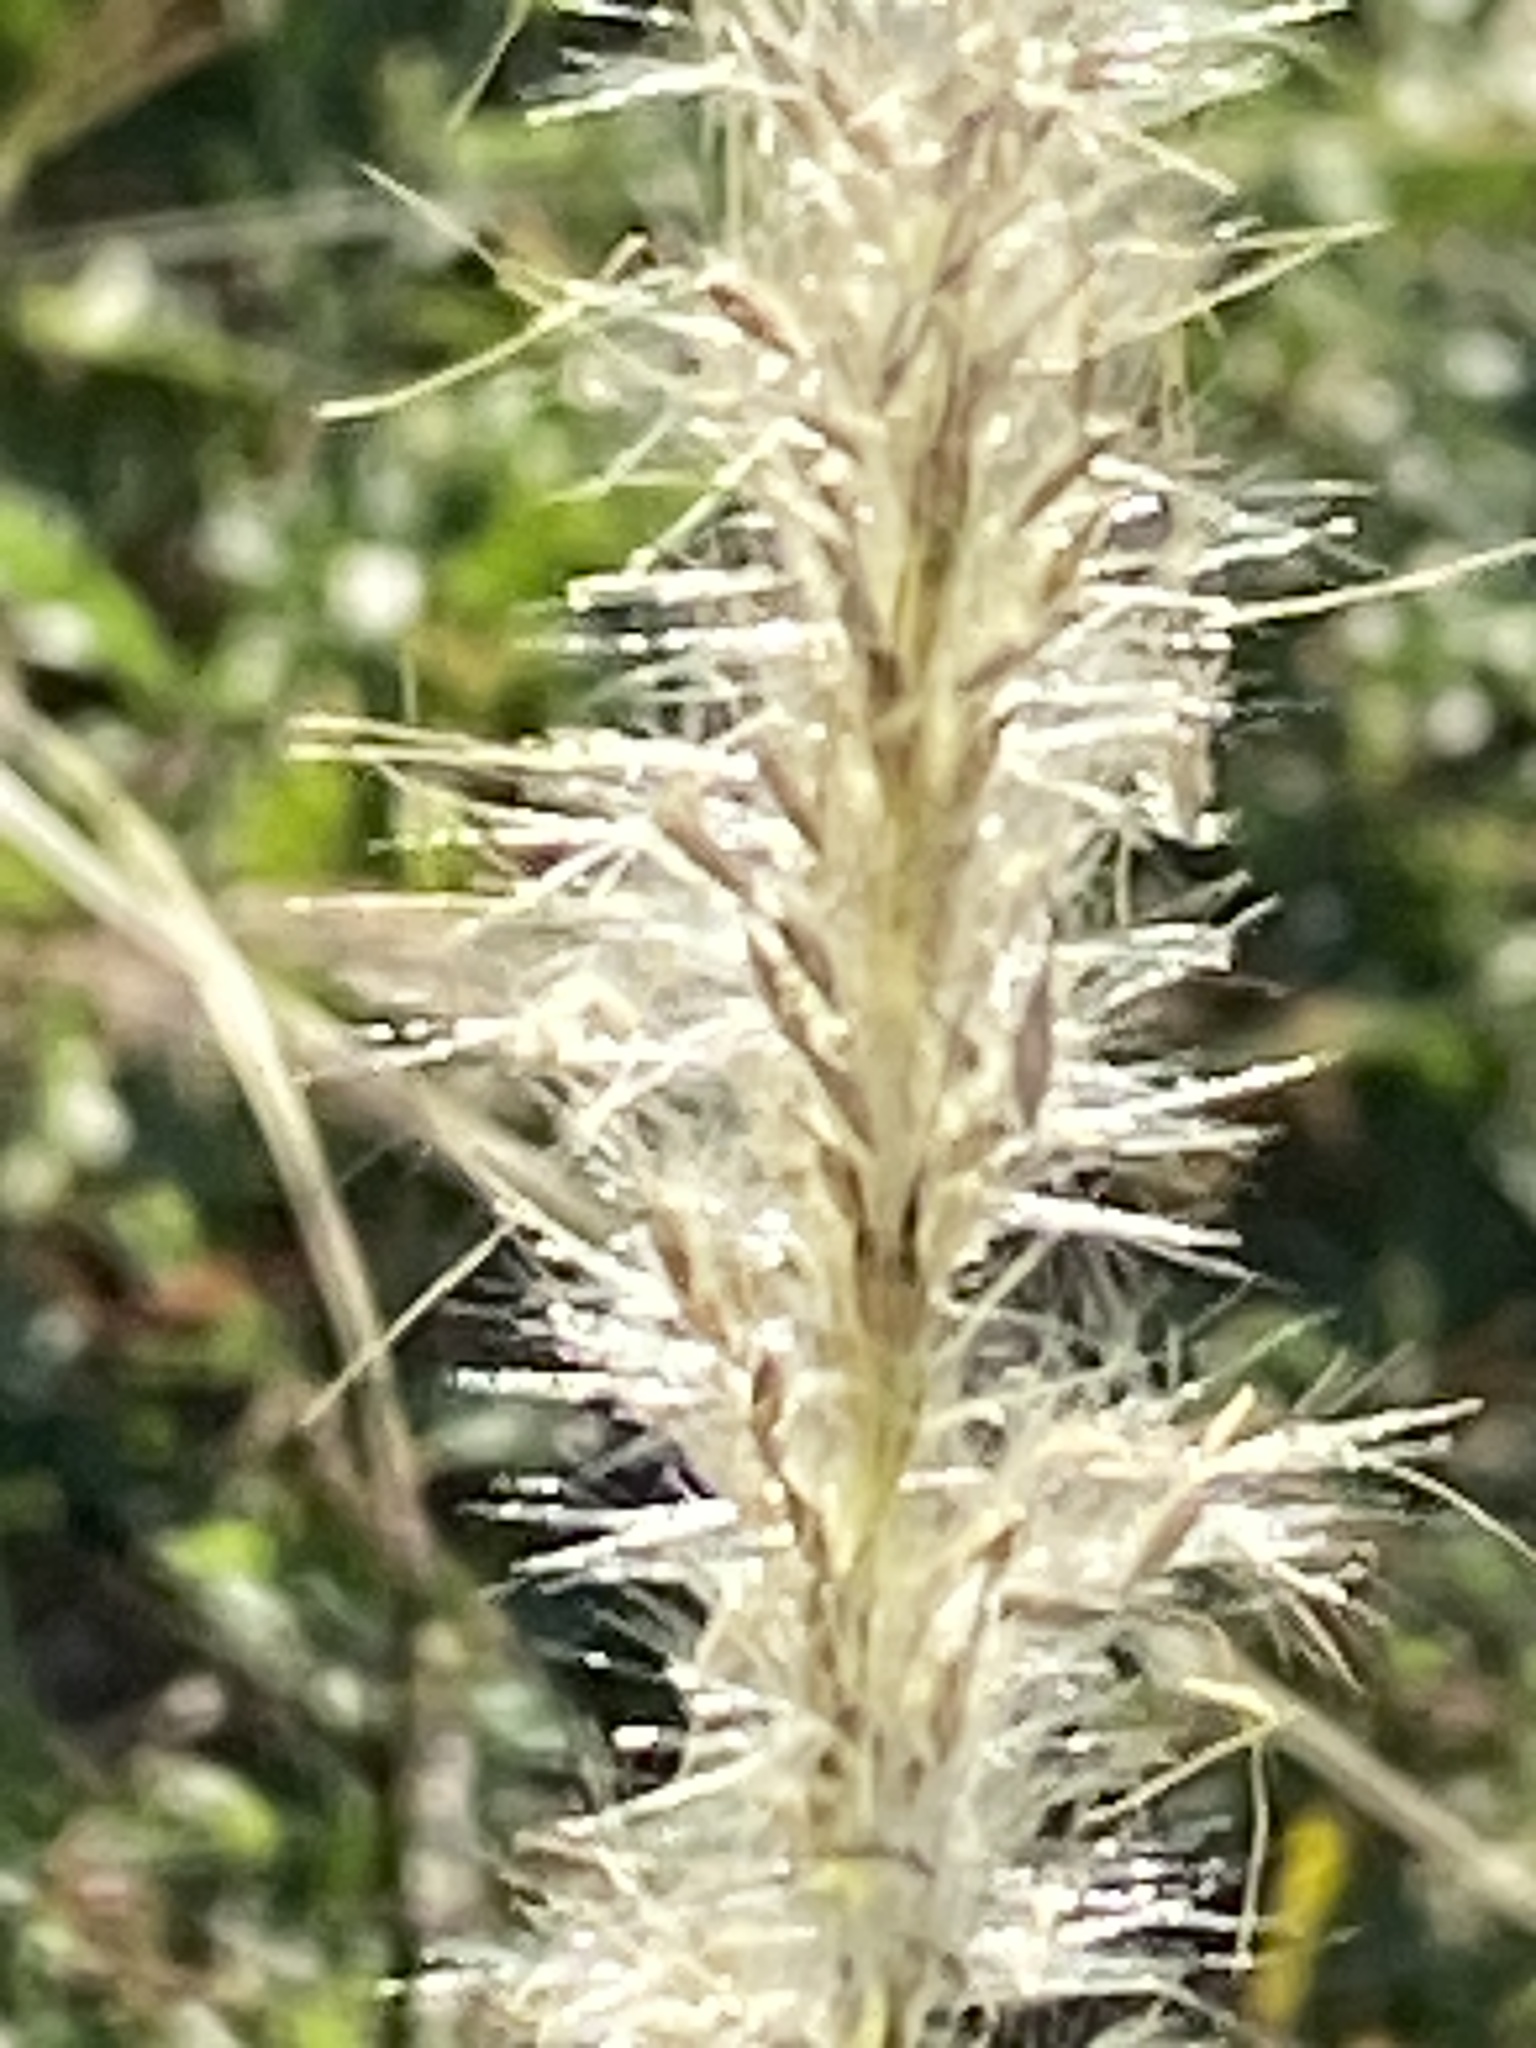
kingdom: Plantae
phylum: Tracheophyta
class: Liliopsida
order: Poales
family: Poaceae
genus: Bothriochloa
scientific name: Bothriochloa torreyana
